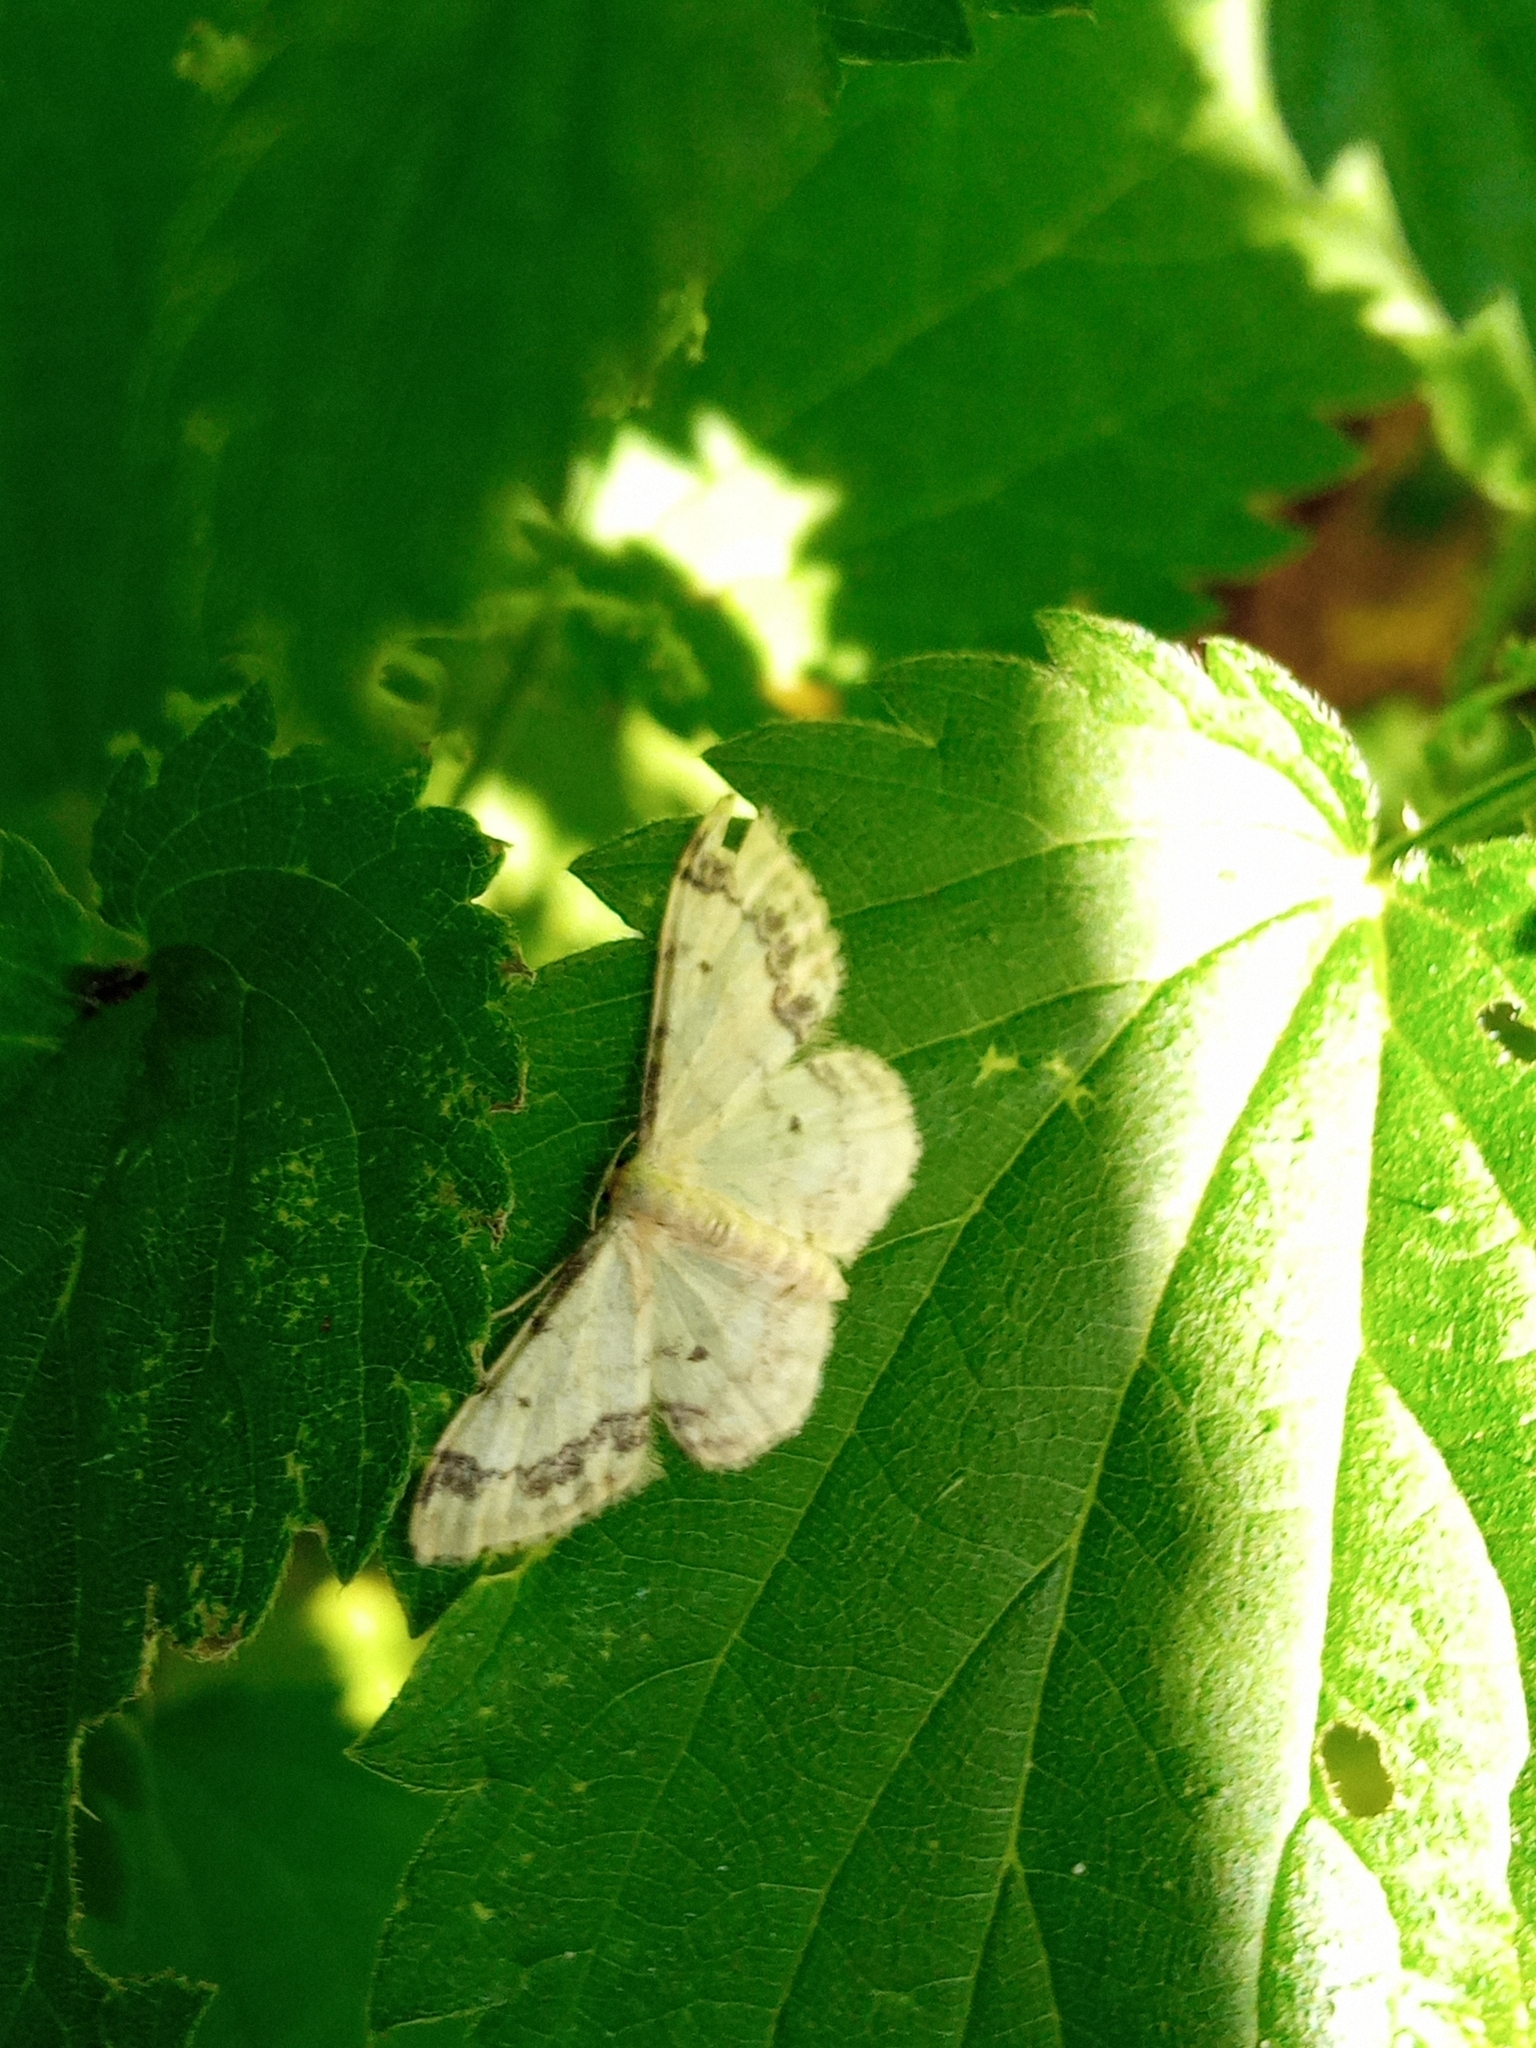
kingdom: Animalia
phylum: Arthropoda
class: Insecta
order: Lepidoptera
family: Geometridae
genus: Idaea
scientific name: Idaea trigeminata
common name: Treble brown spot
